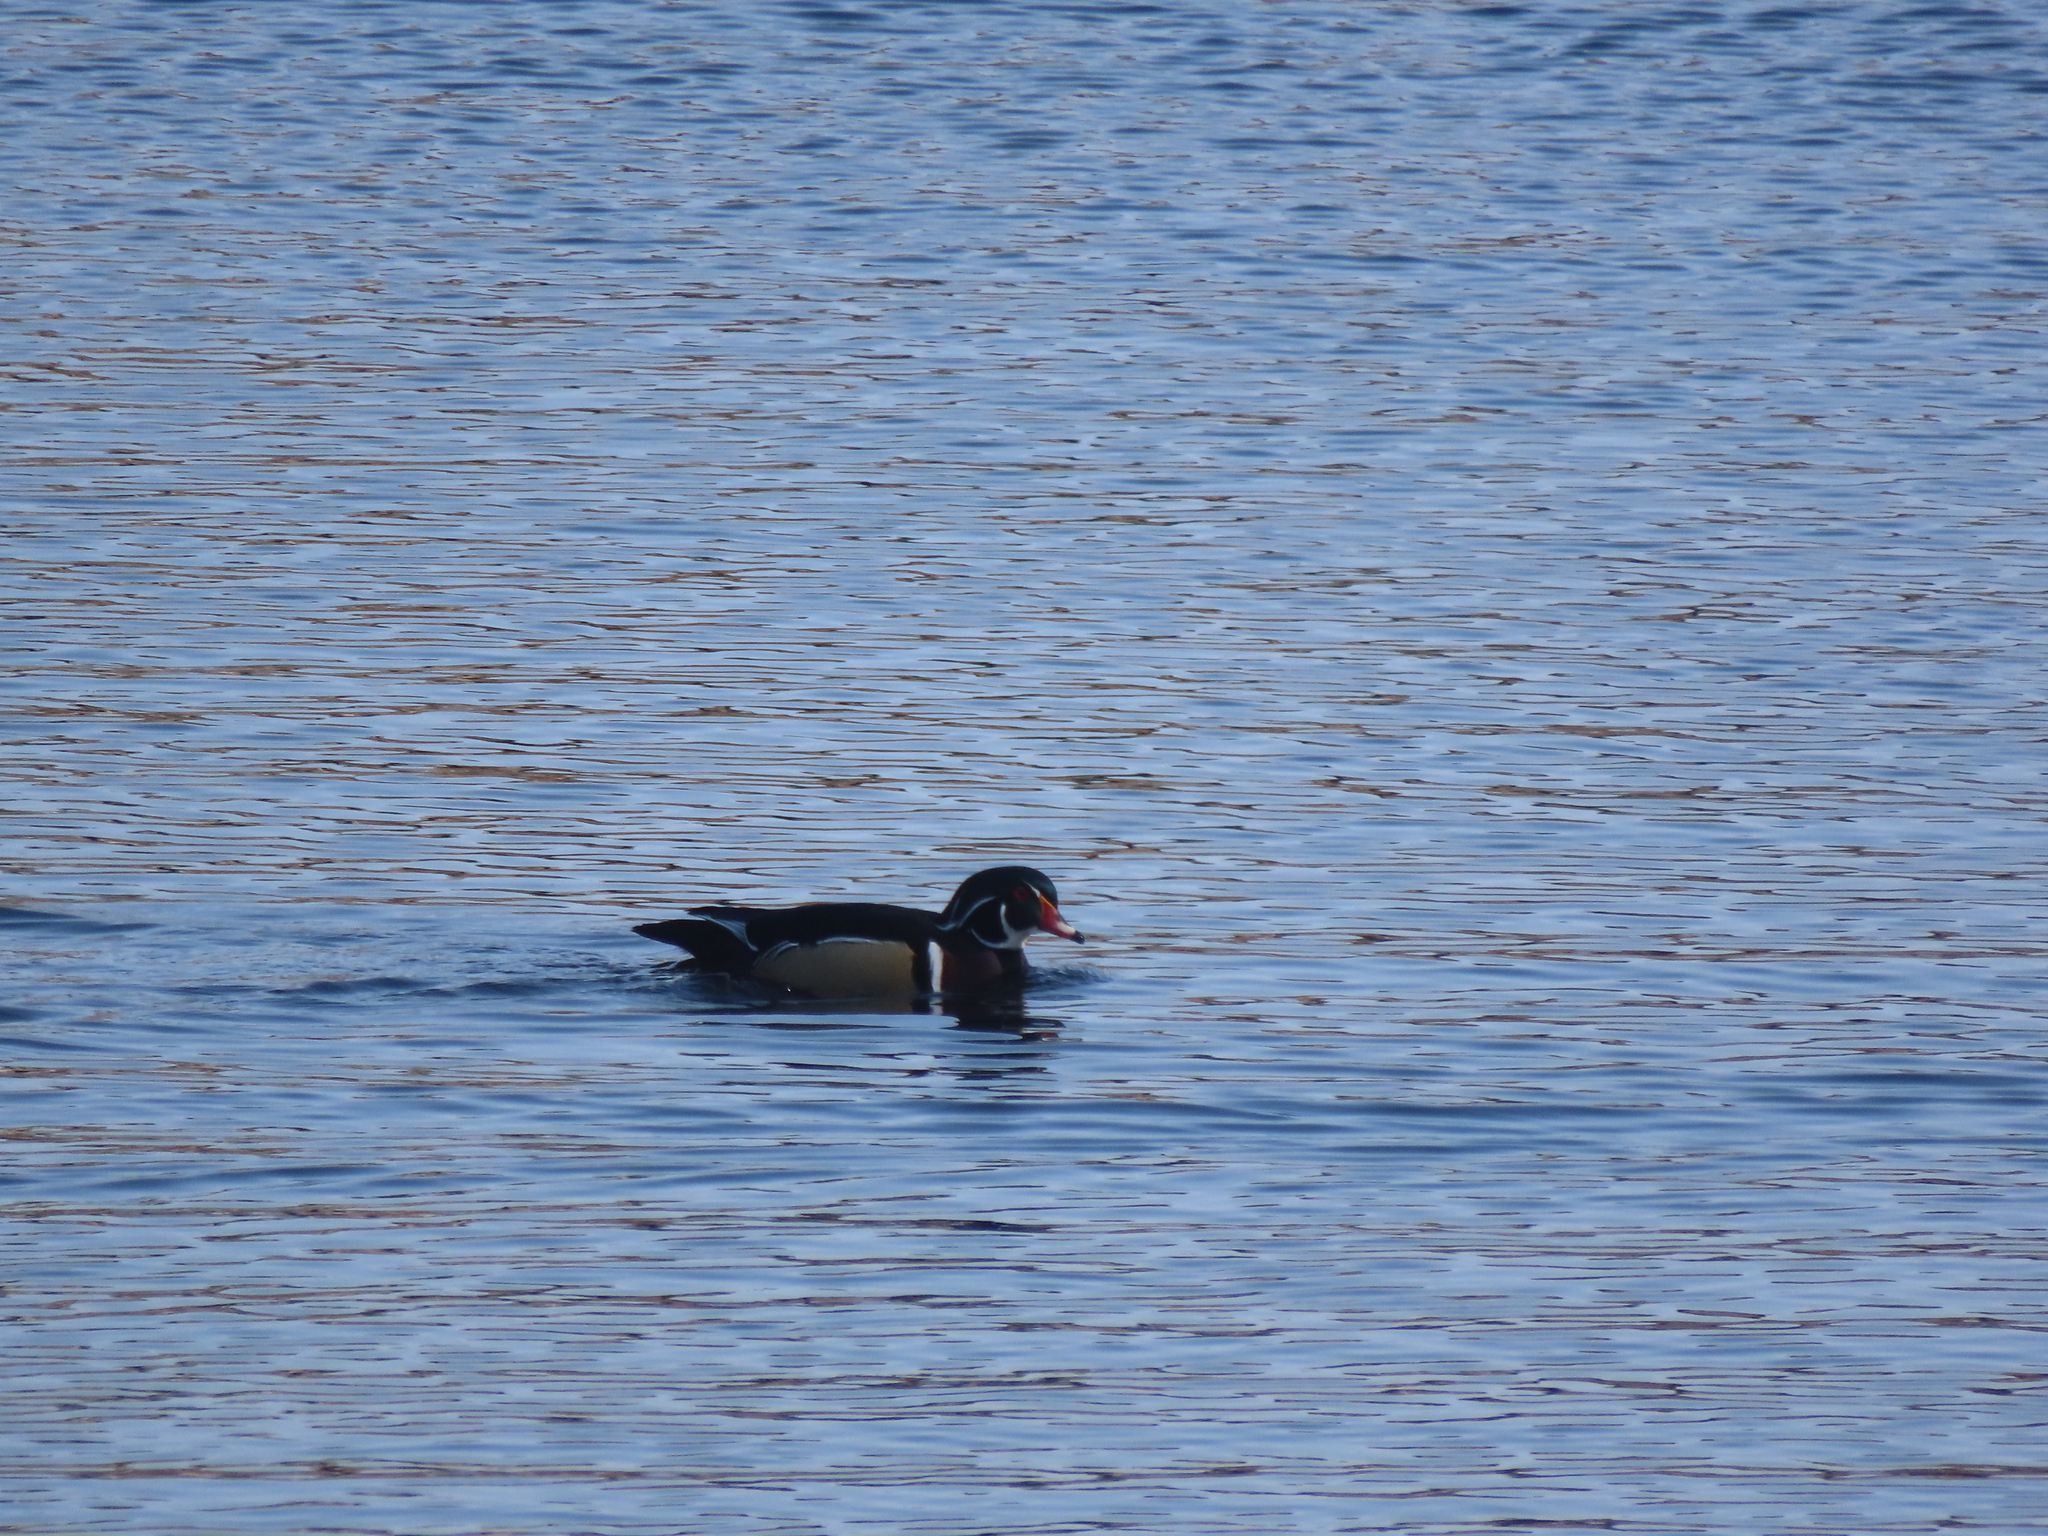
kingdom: Animalia
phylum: Chordata
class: Aves
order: Anseriformes
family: Anatidae
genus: Aix
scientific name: Aix sponsa
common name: Wood duck
